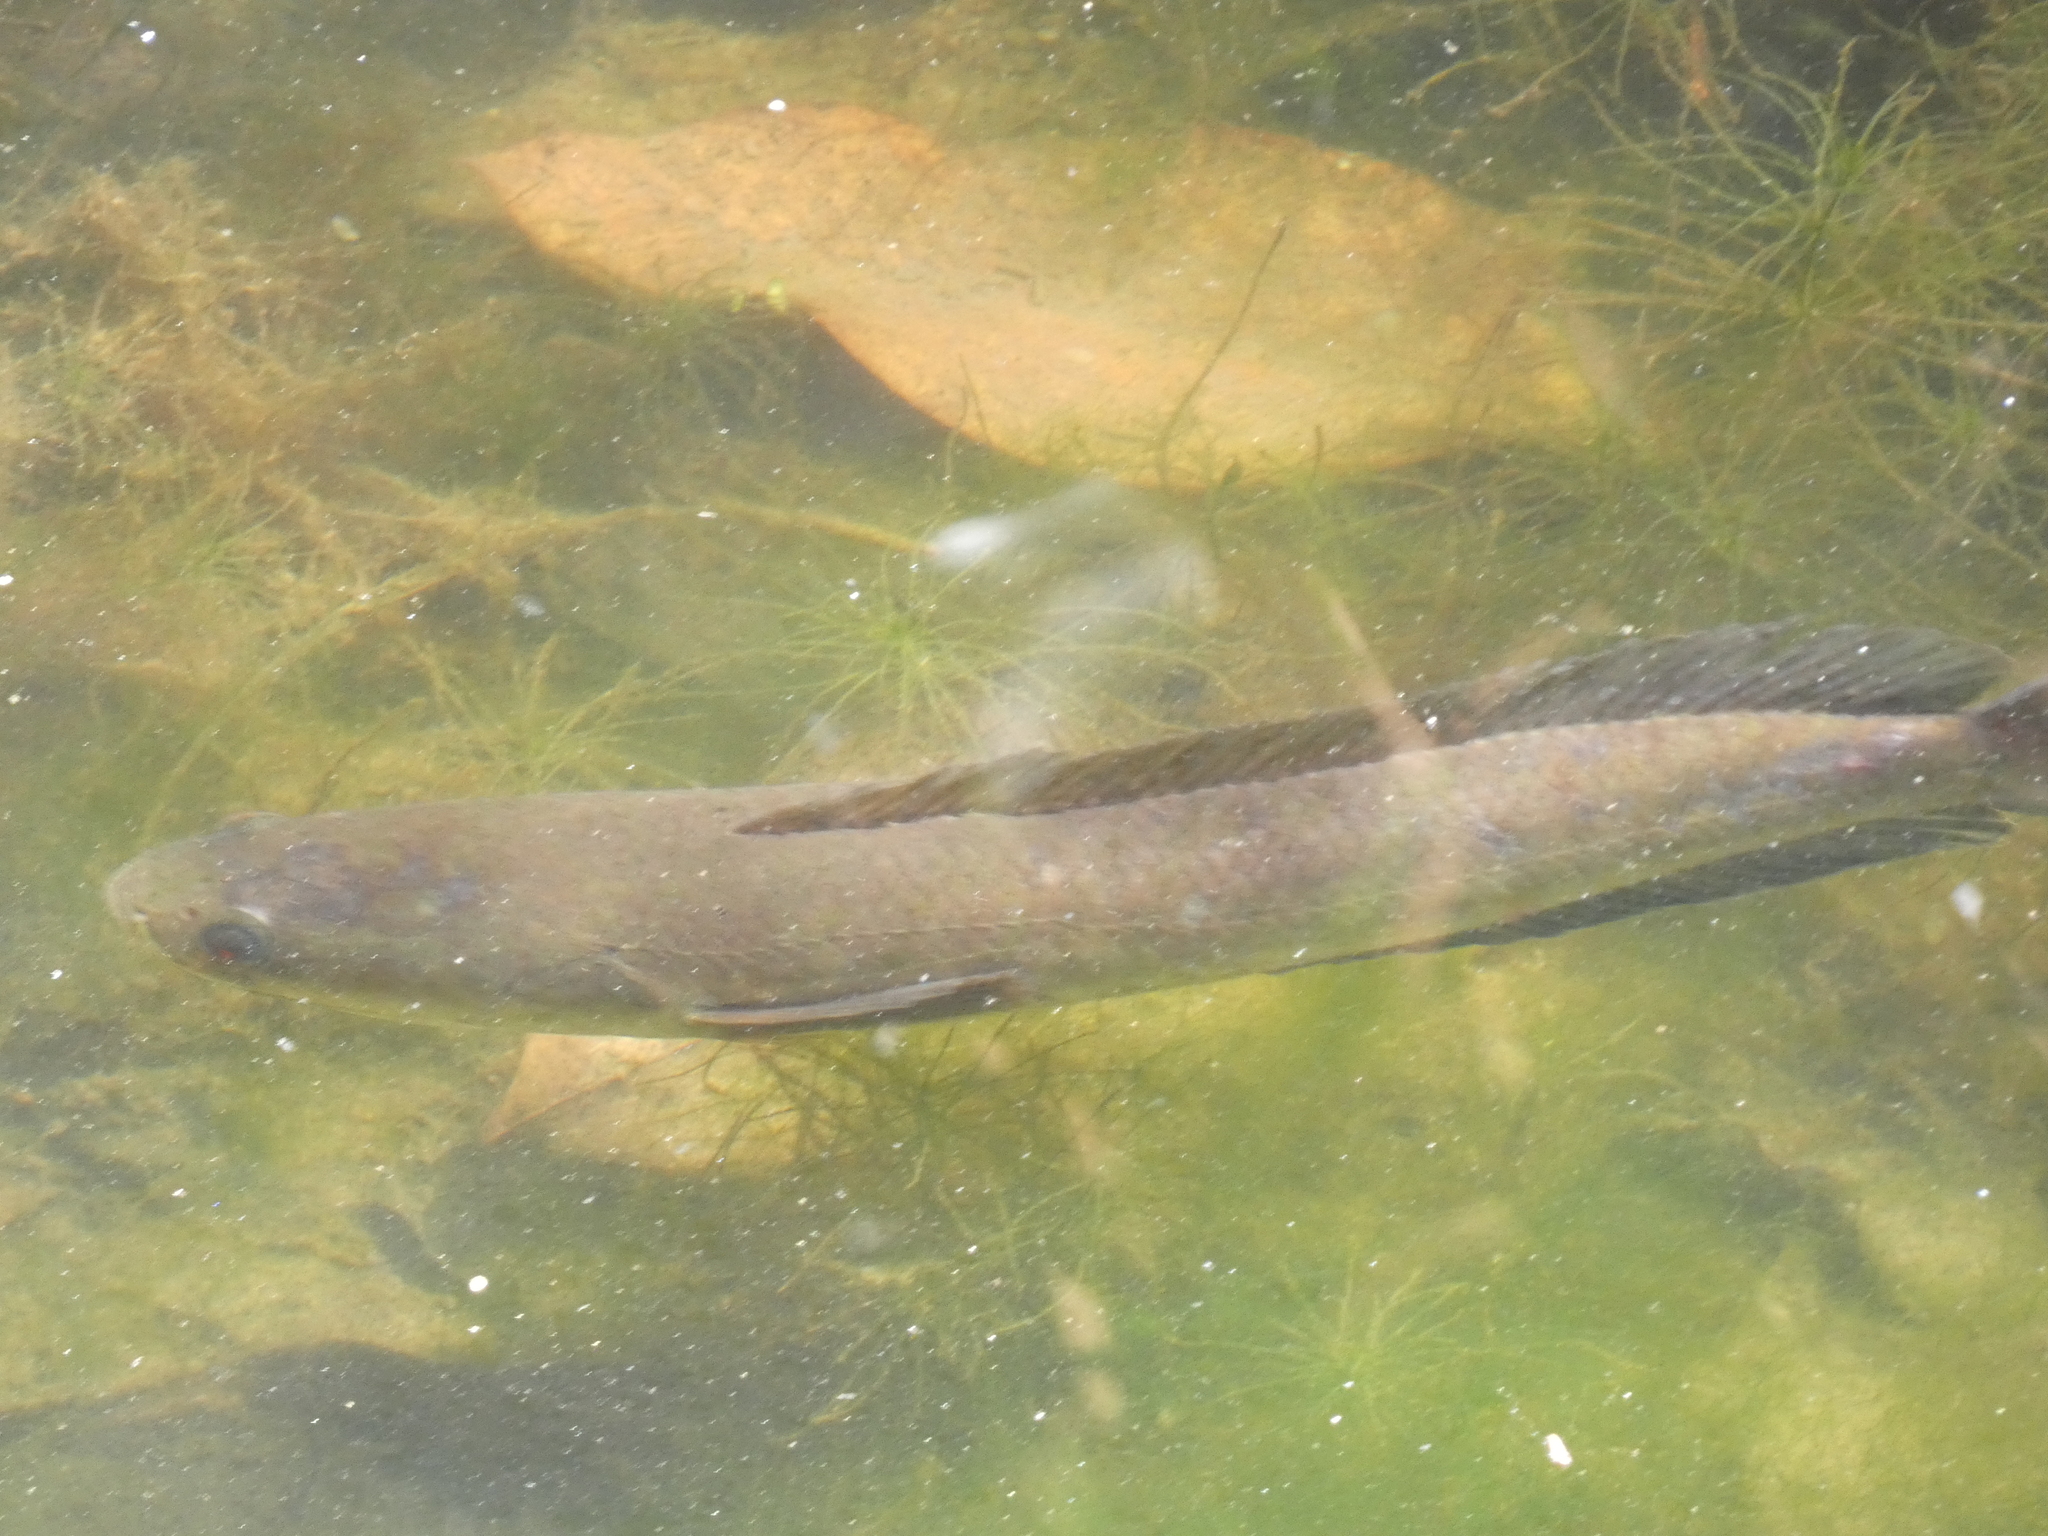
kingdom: Animalia
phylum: Chordata
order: Perciformes
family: Channidae
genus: Channa
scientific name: Channa striata
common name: Striped snakehead
